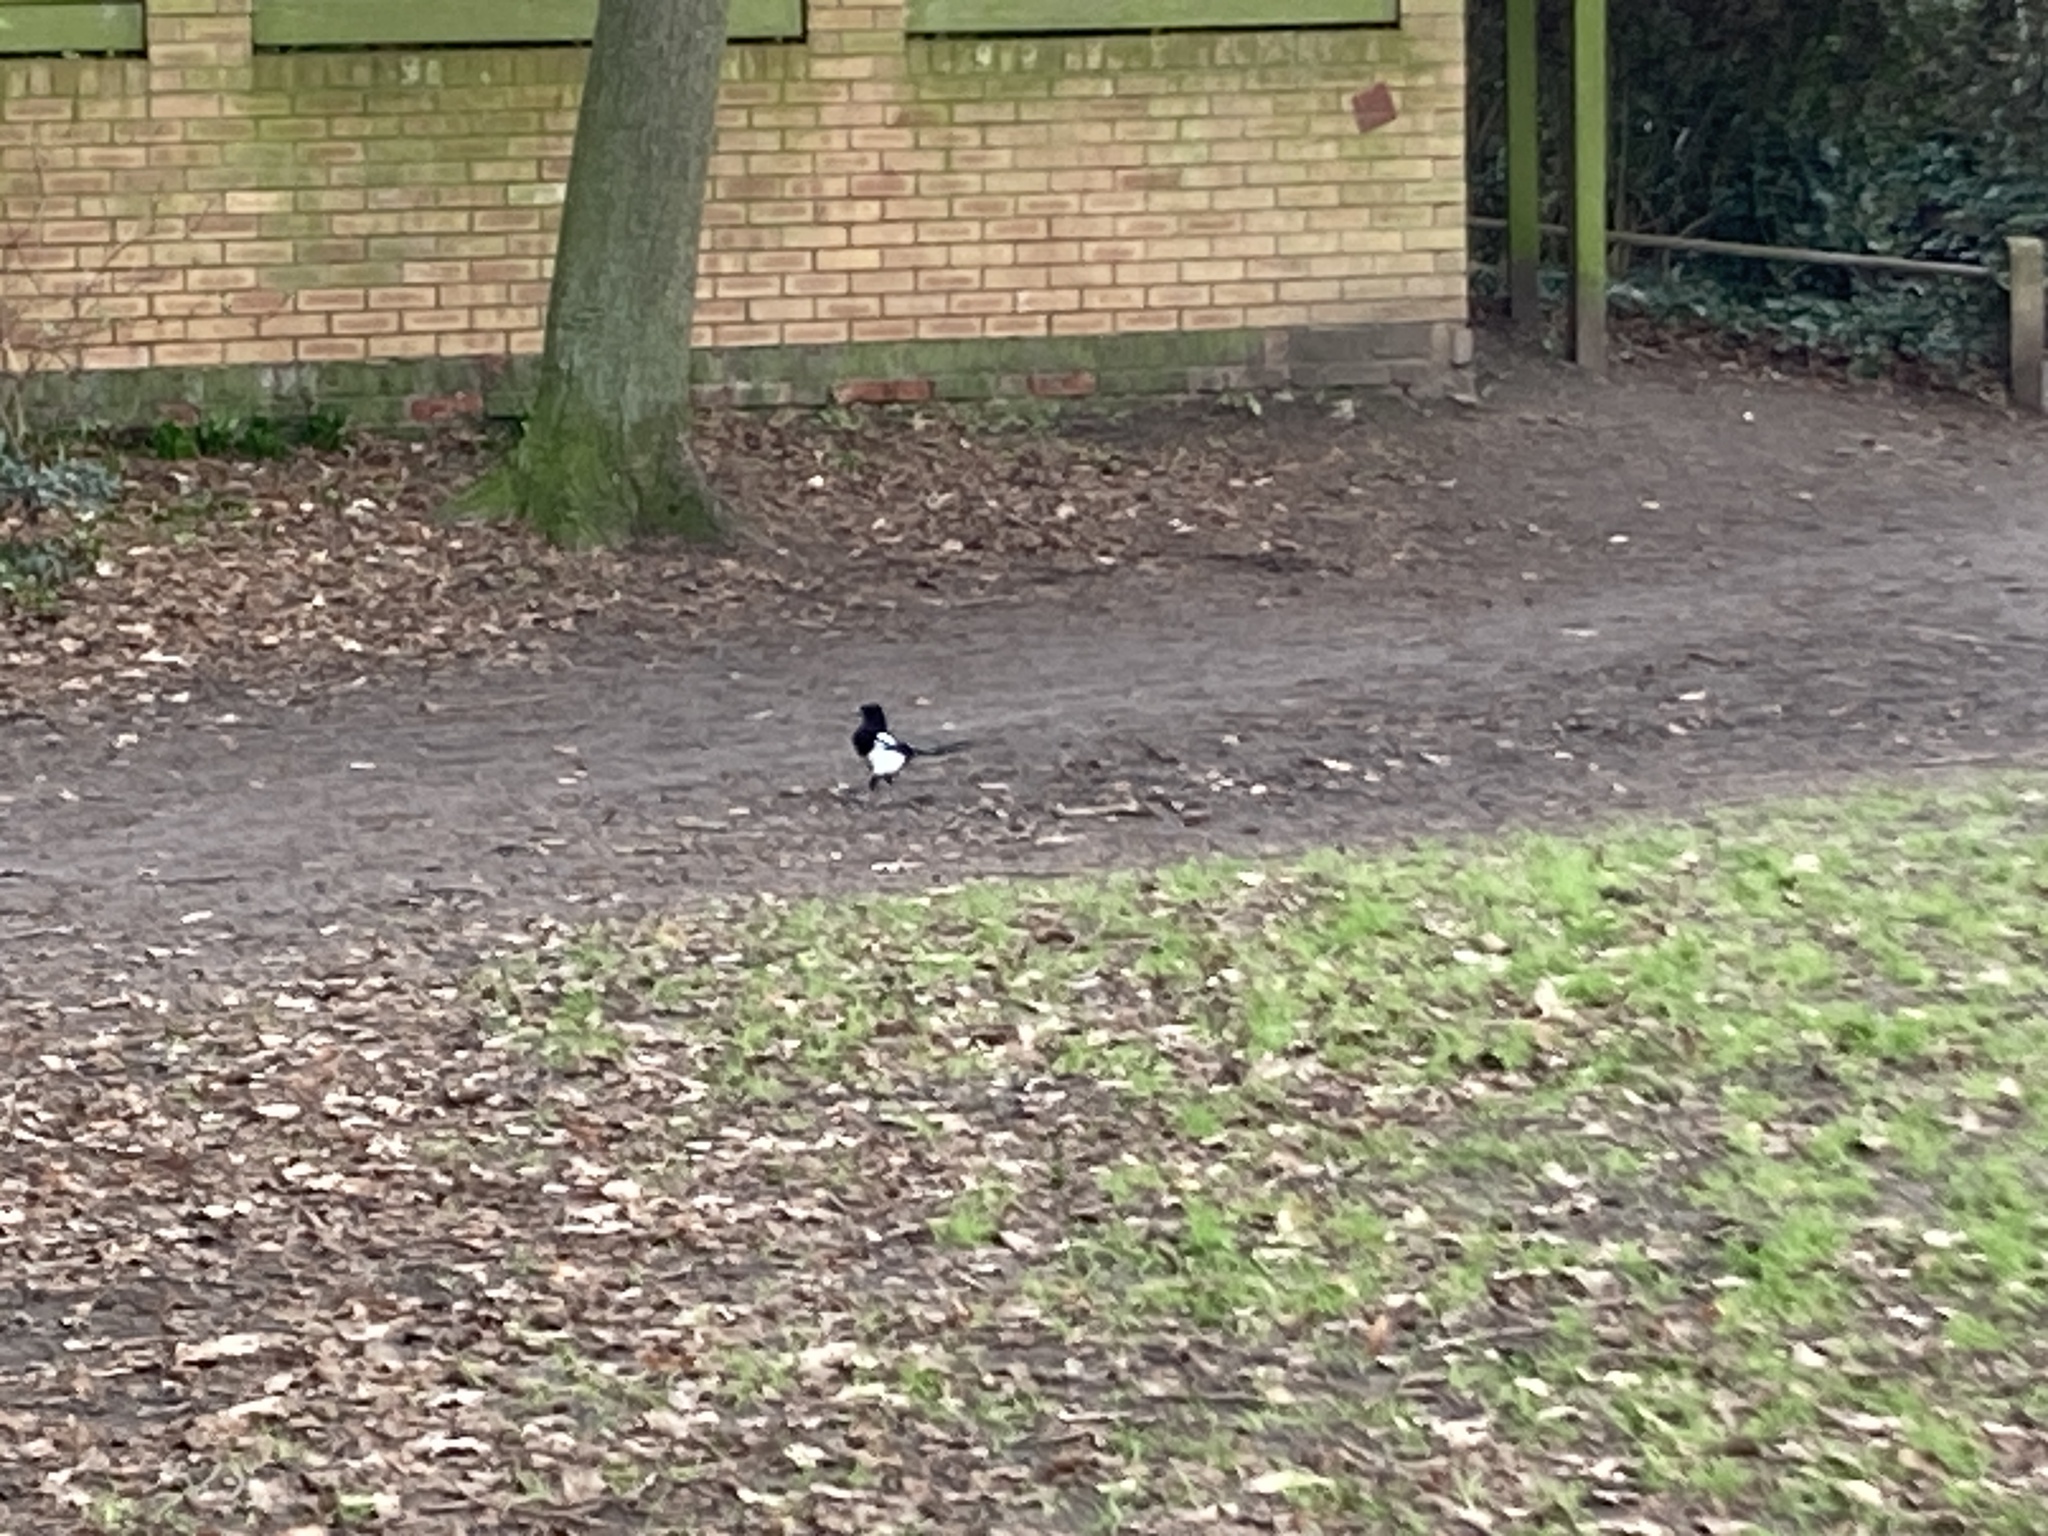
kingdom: Animalia
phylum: Chordata
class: Aves
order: Passeriformes
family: Corvidae
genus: Pica
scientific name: Pica pica
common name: Eurasian magpie
